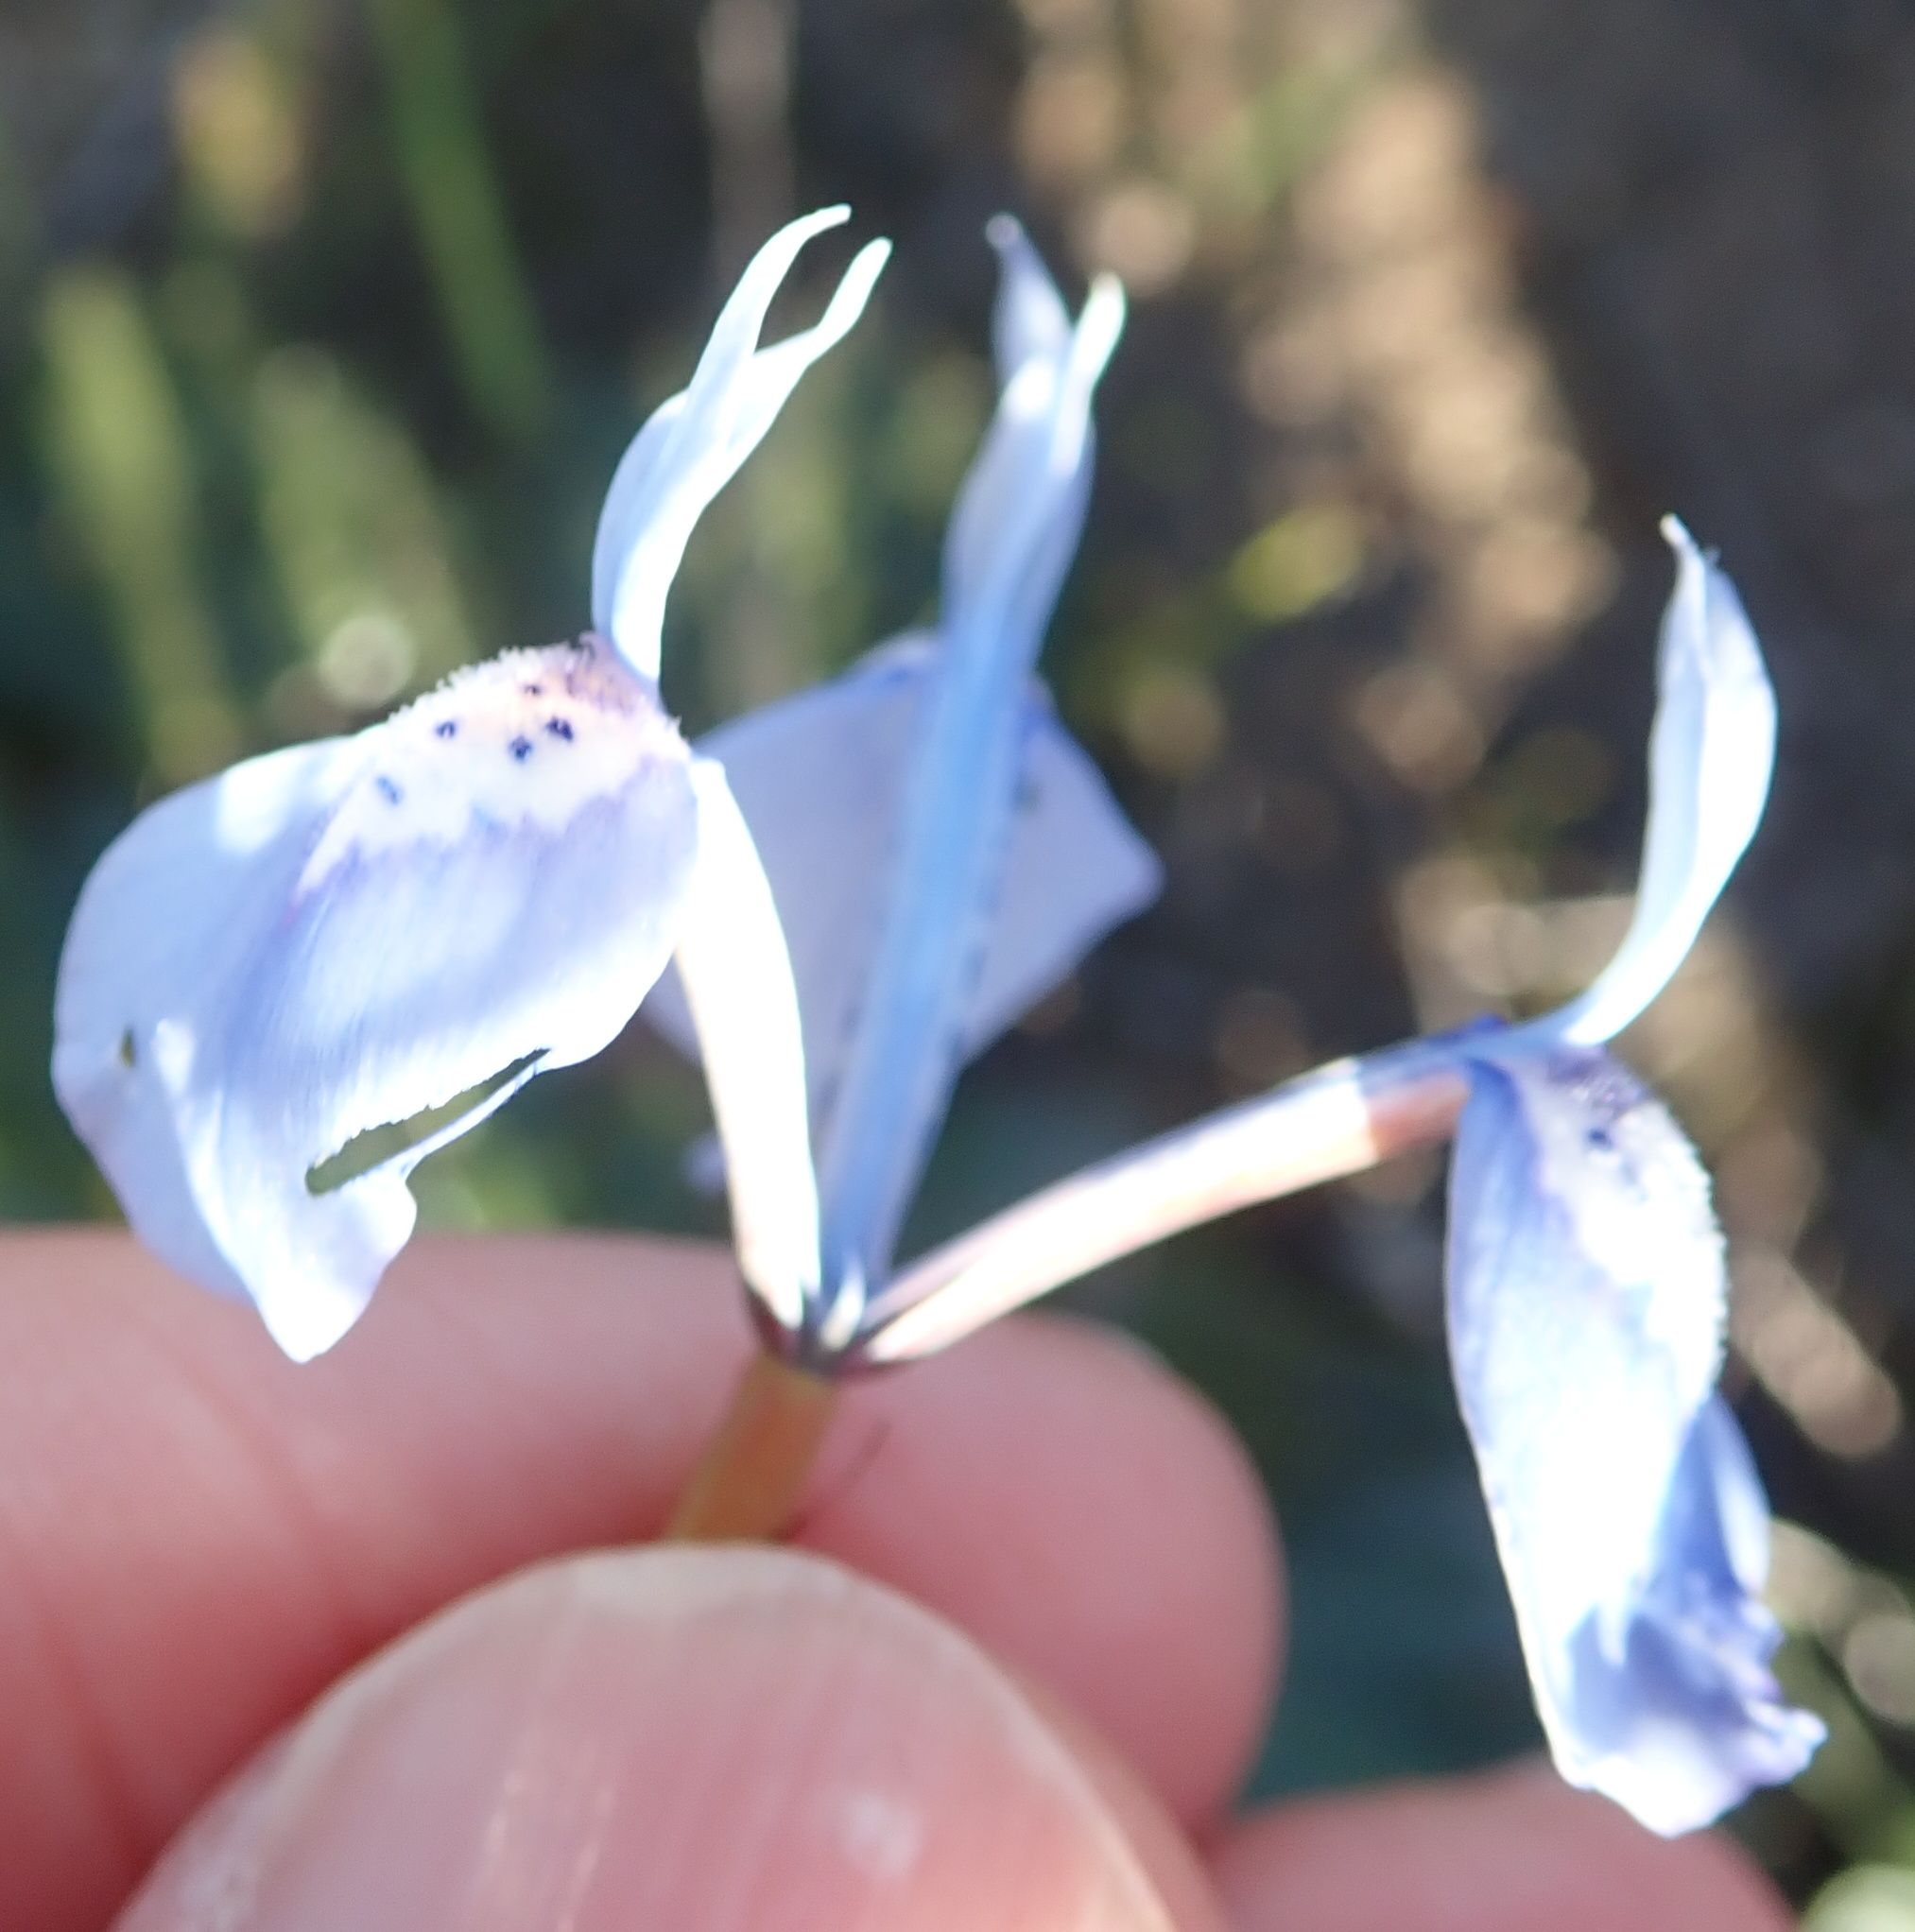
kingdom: Plantae
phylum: Tracheophyta
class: Liliopsida
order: Asparagales
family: Iridaceae
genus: Moraea
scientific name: Moraea tripetala
